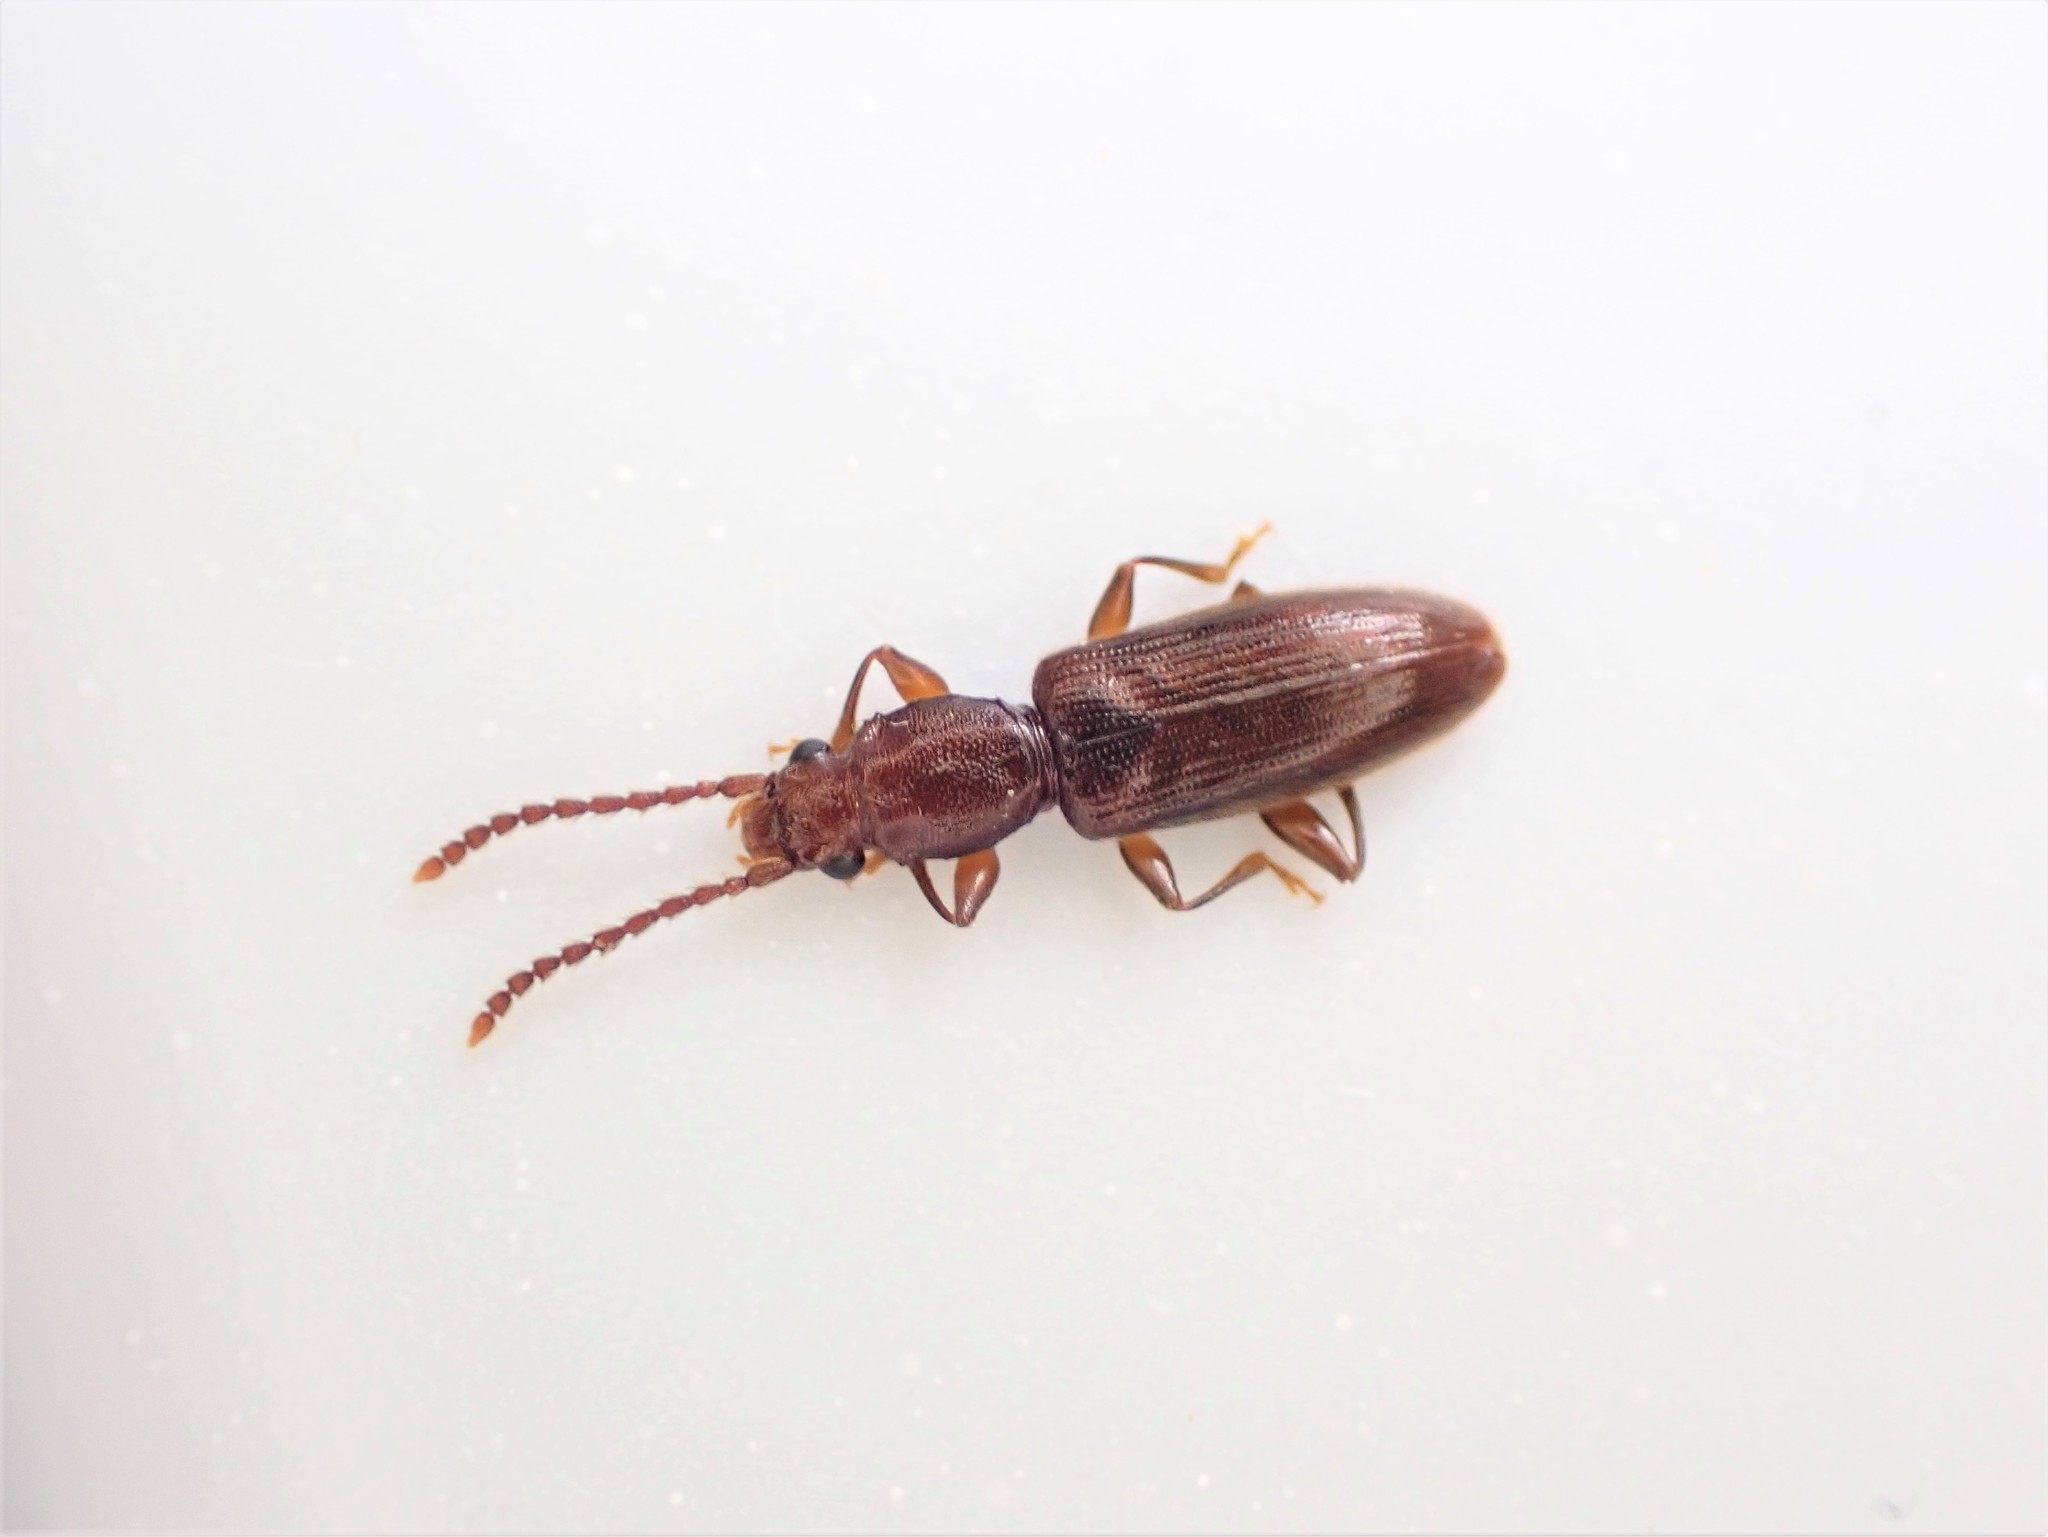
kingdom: Animalia
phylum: Arthropoda
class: Insecta
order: Coleoptera
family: Silvanidae
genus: Cryptamorpha
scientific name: Cryptamorpha brevicornis
